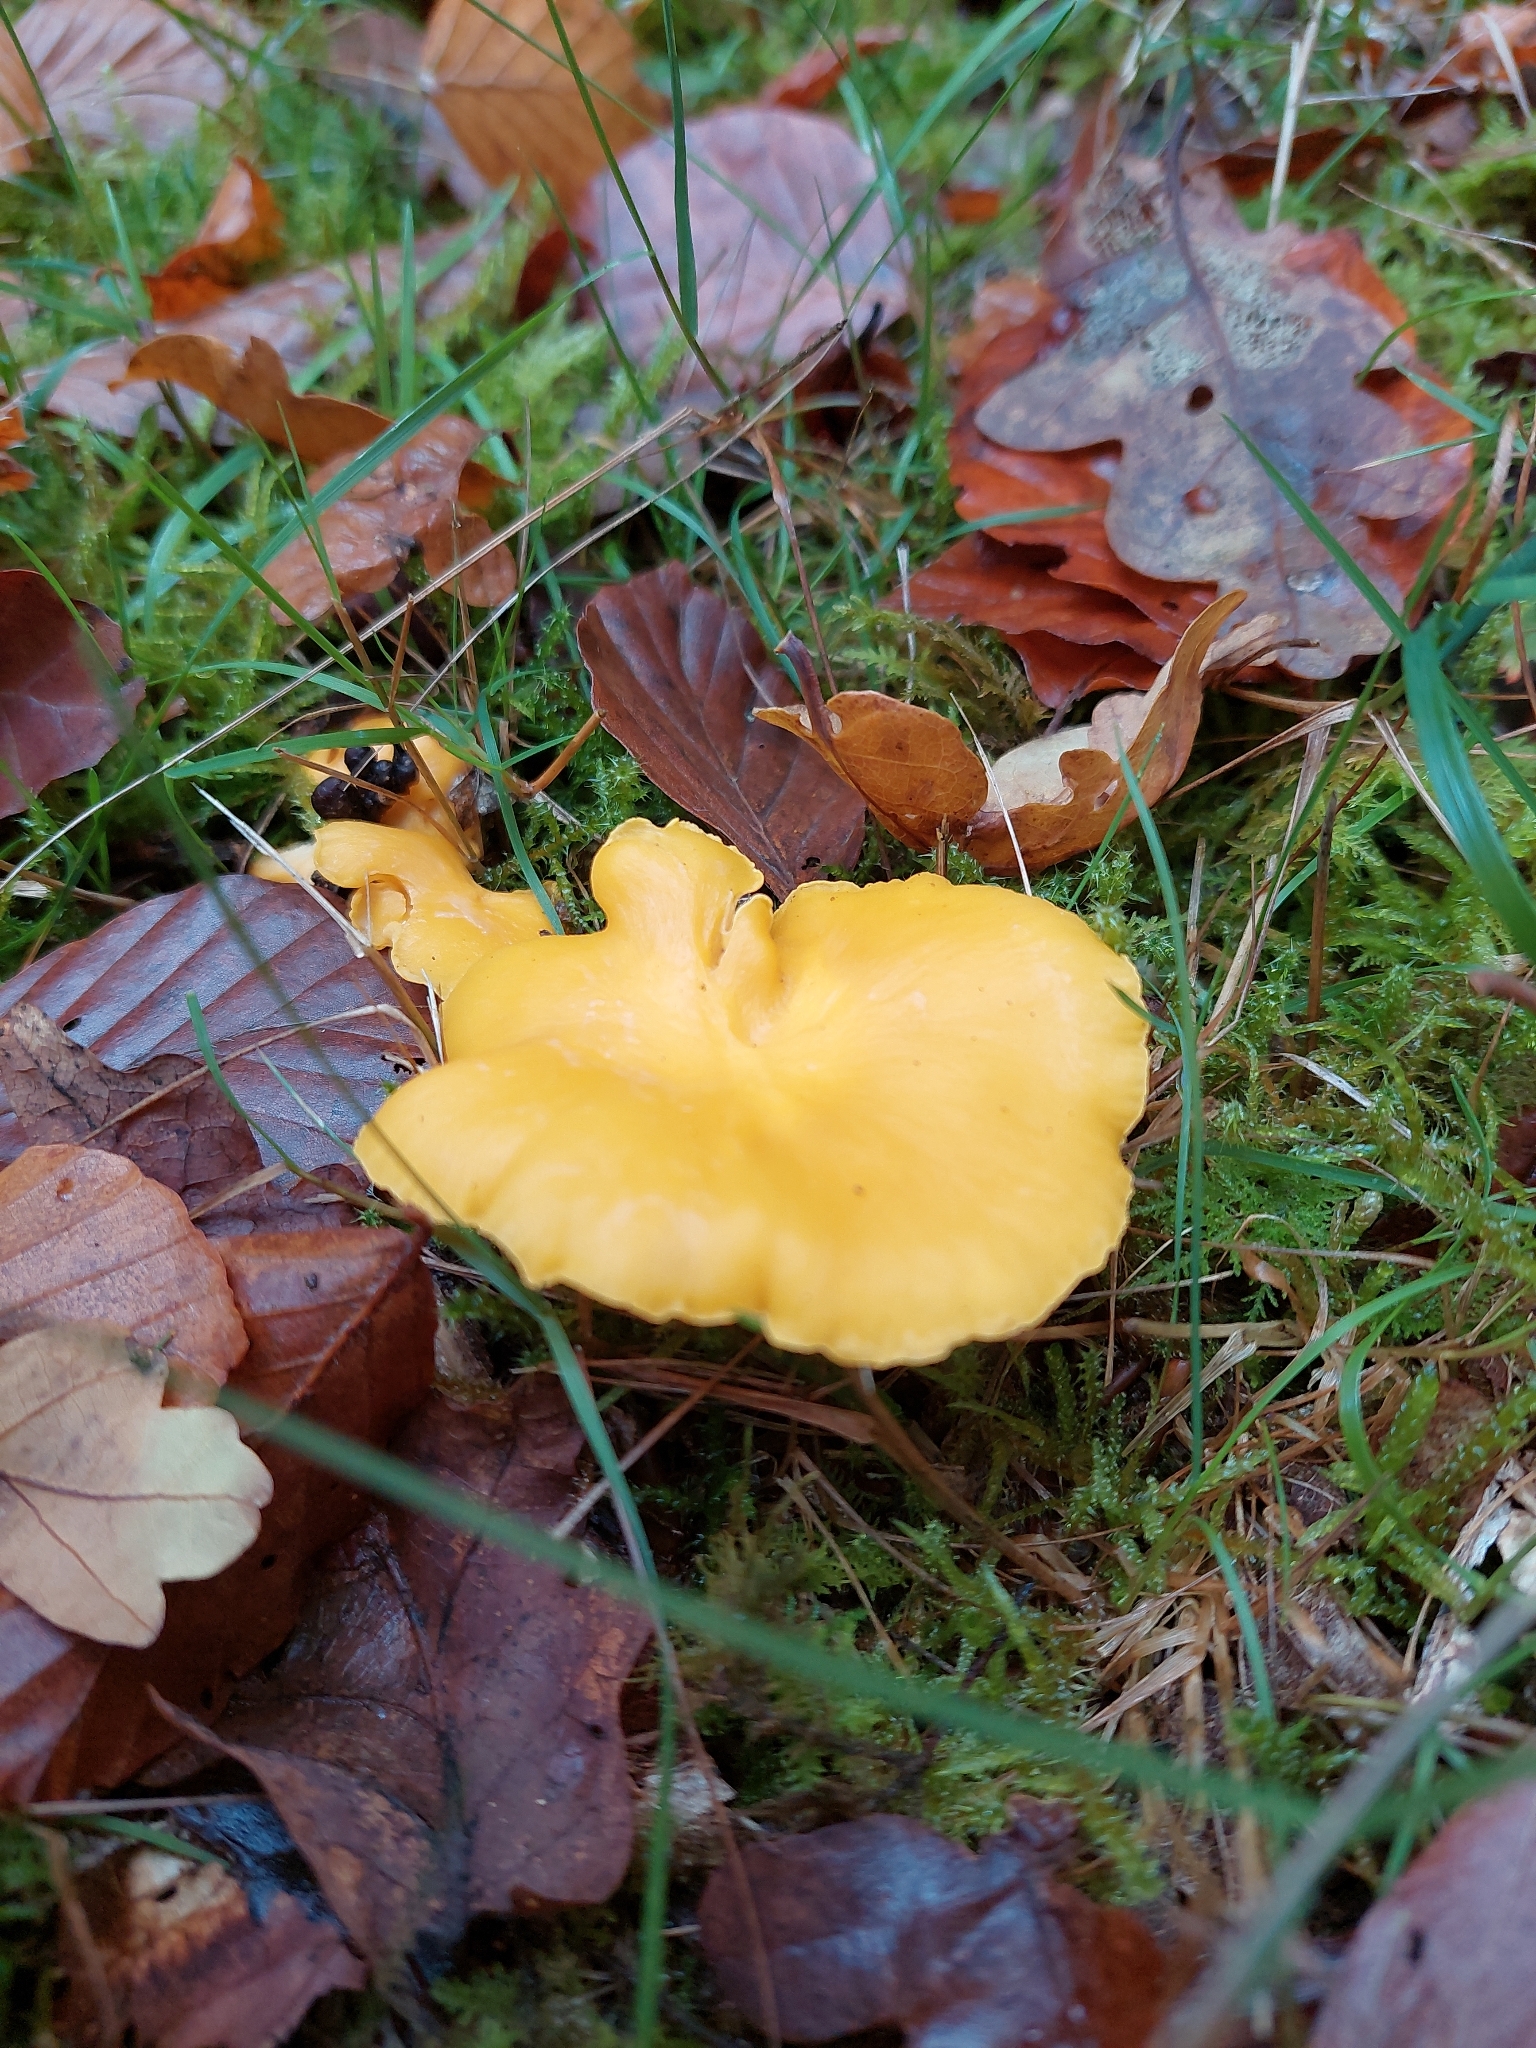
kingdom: Fungi
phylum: Basidiomycota
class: Agaricomycetes
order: Cantharellales
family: Hydnaceae
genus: Cantharellus
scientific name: Cantharellus cibarius
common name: Chanterelle
